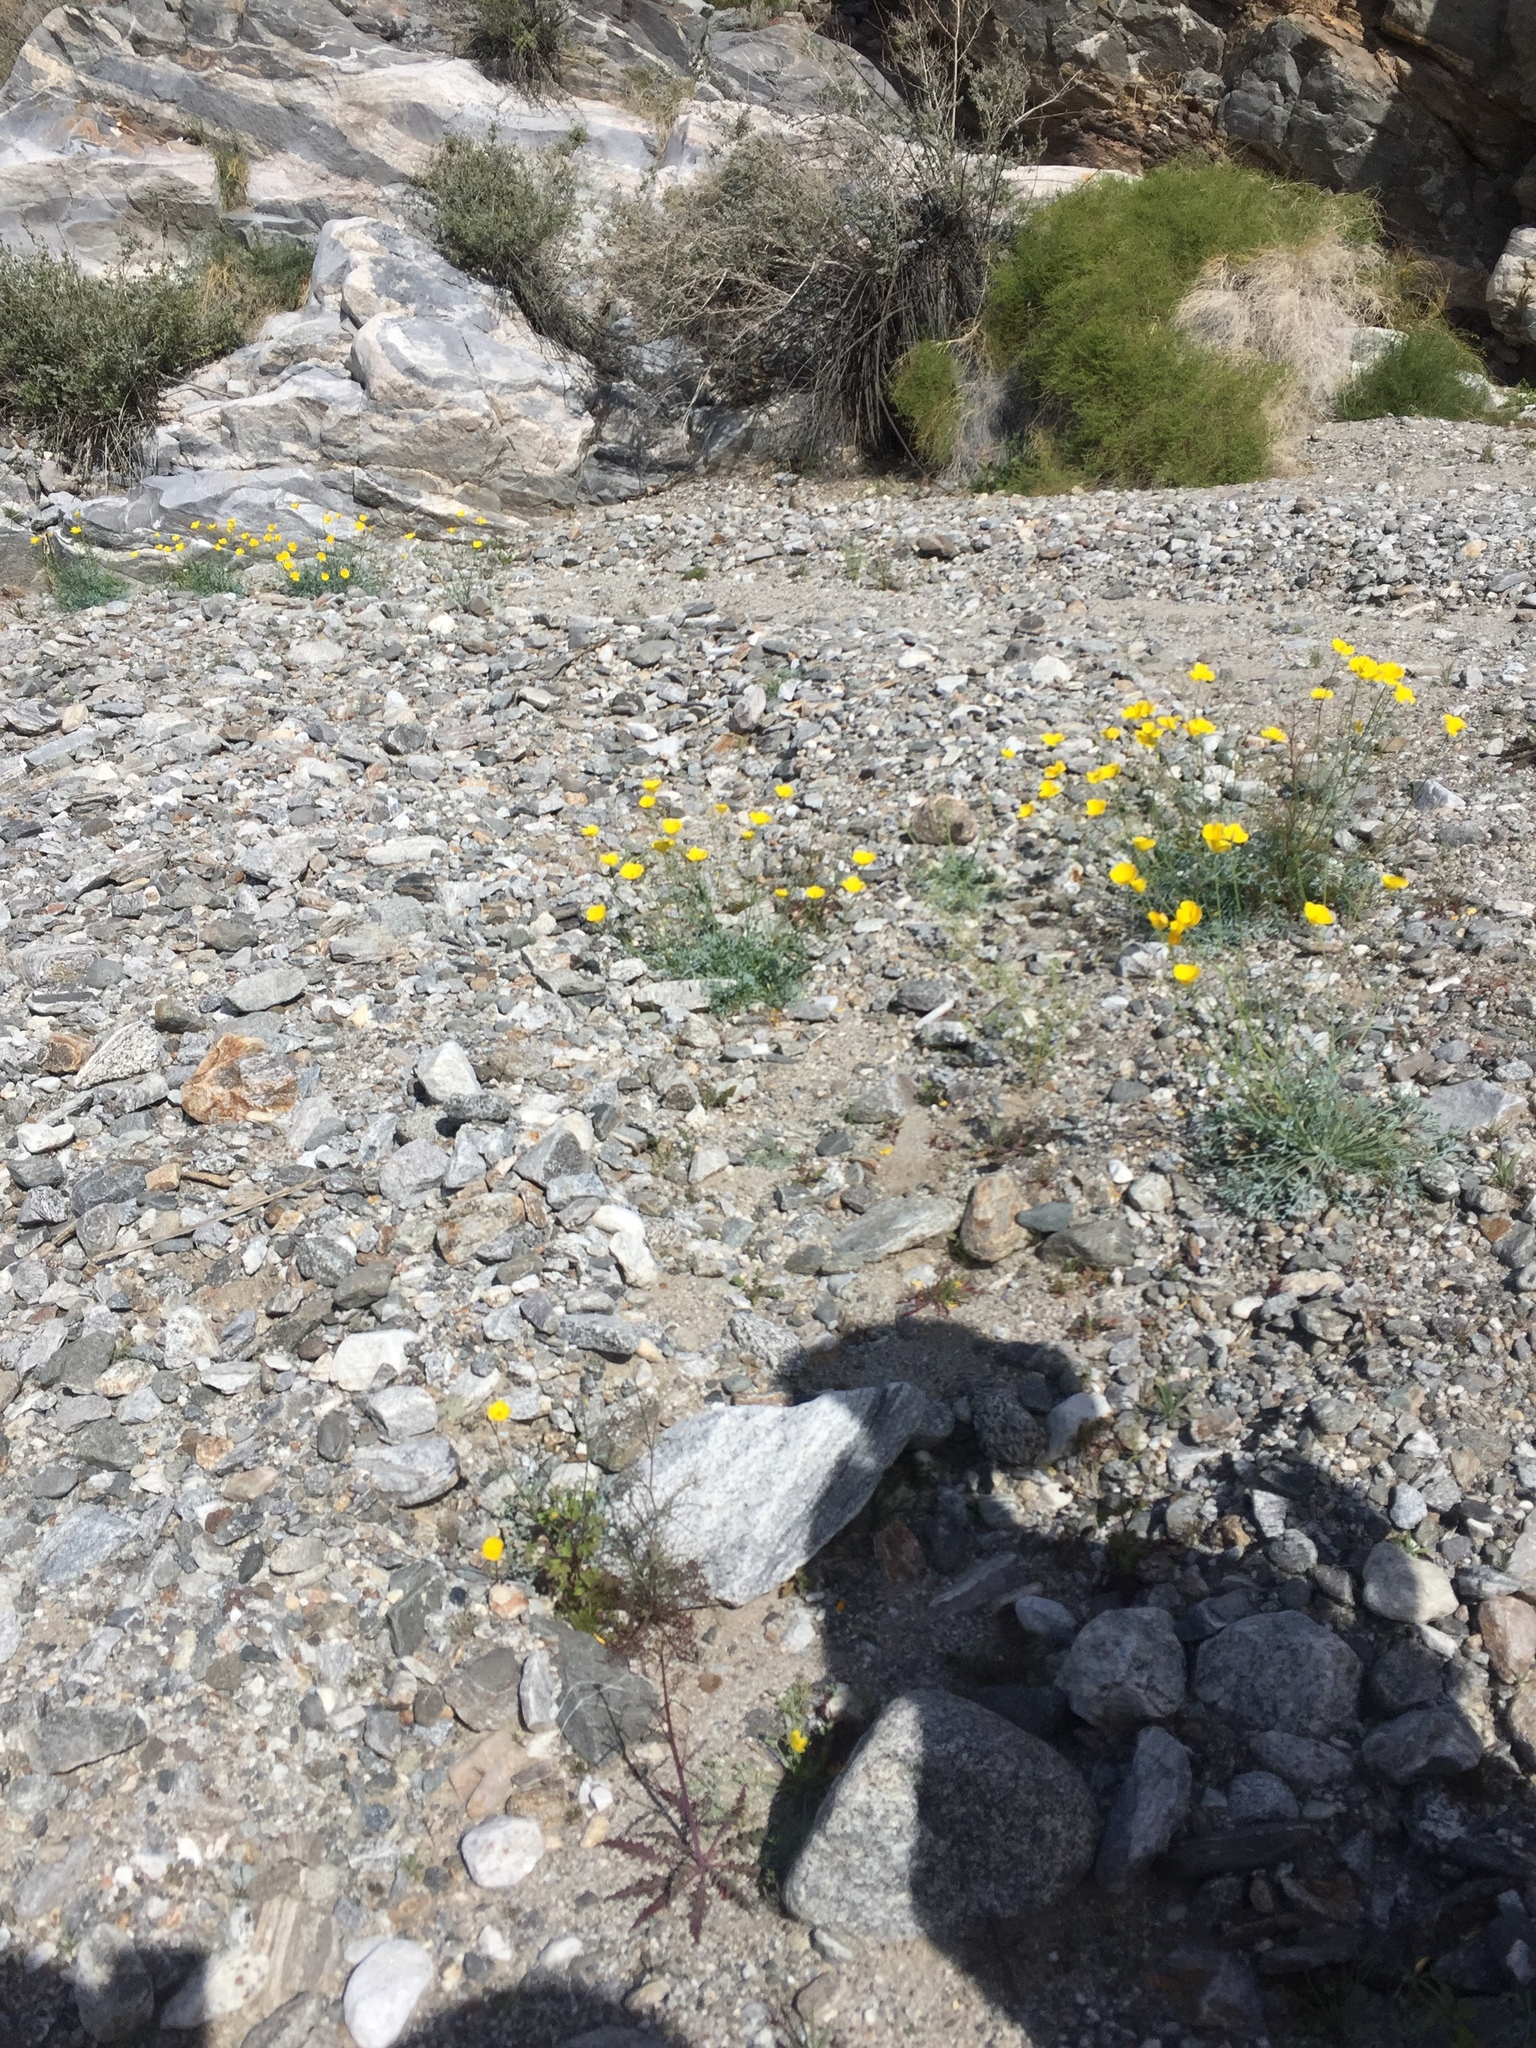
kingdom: Plantae
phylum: Tracheophyta
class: Magnoliopsida
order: Ranunculales
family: Papaveraceae
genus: Eschscholzia
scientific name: Eschscholzia parishii
